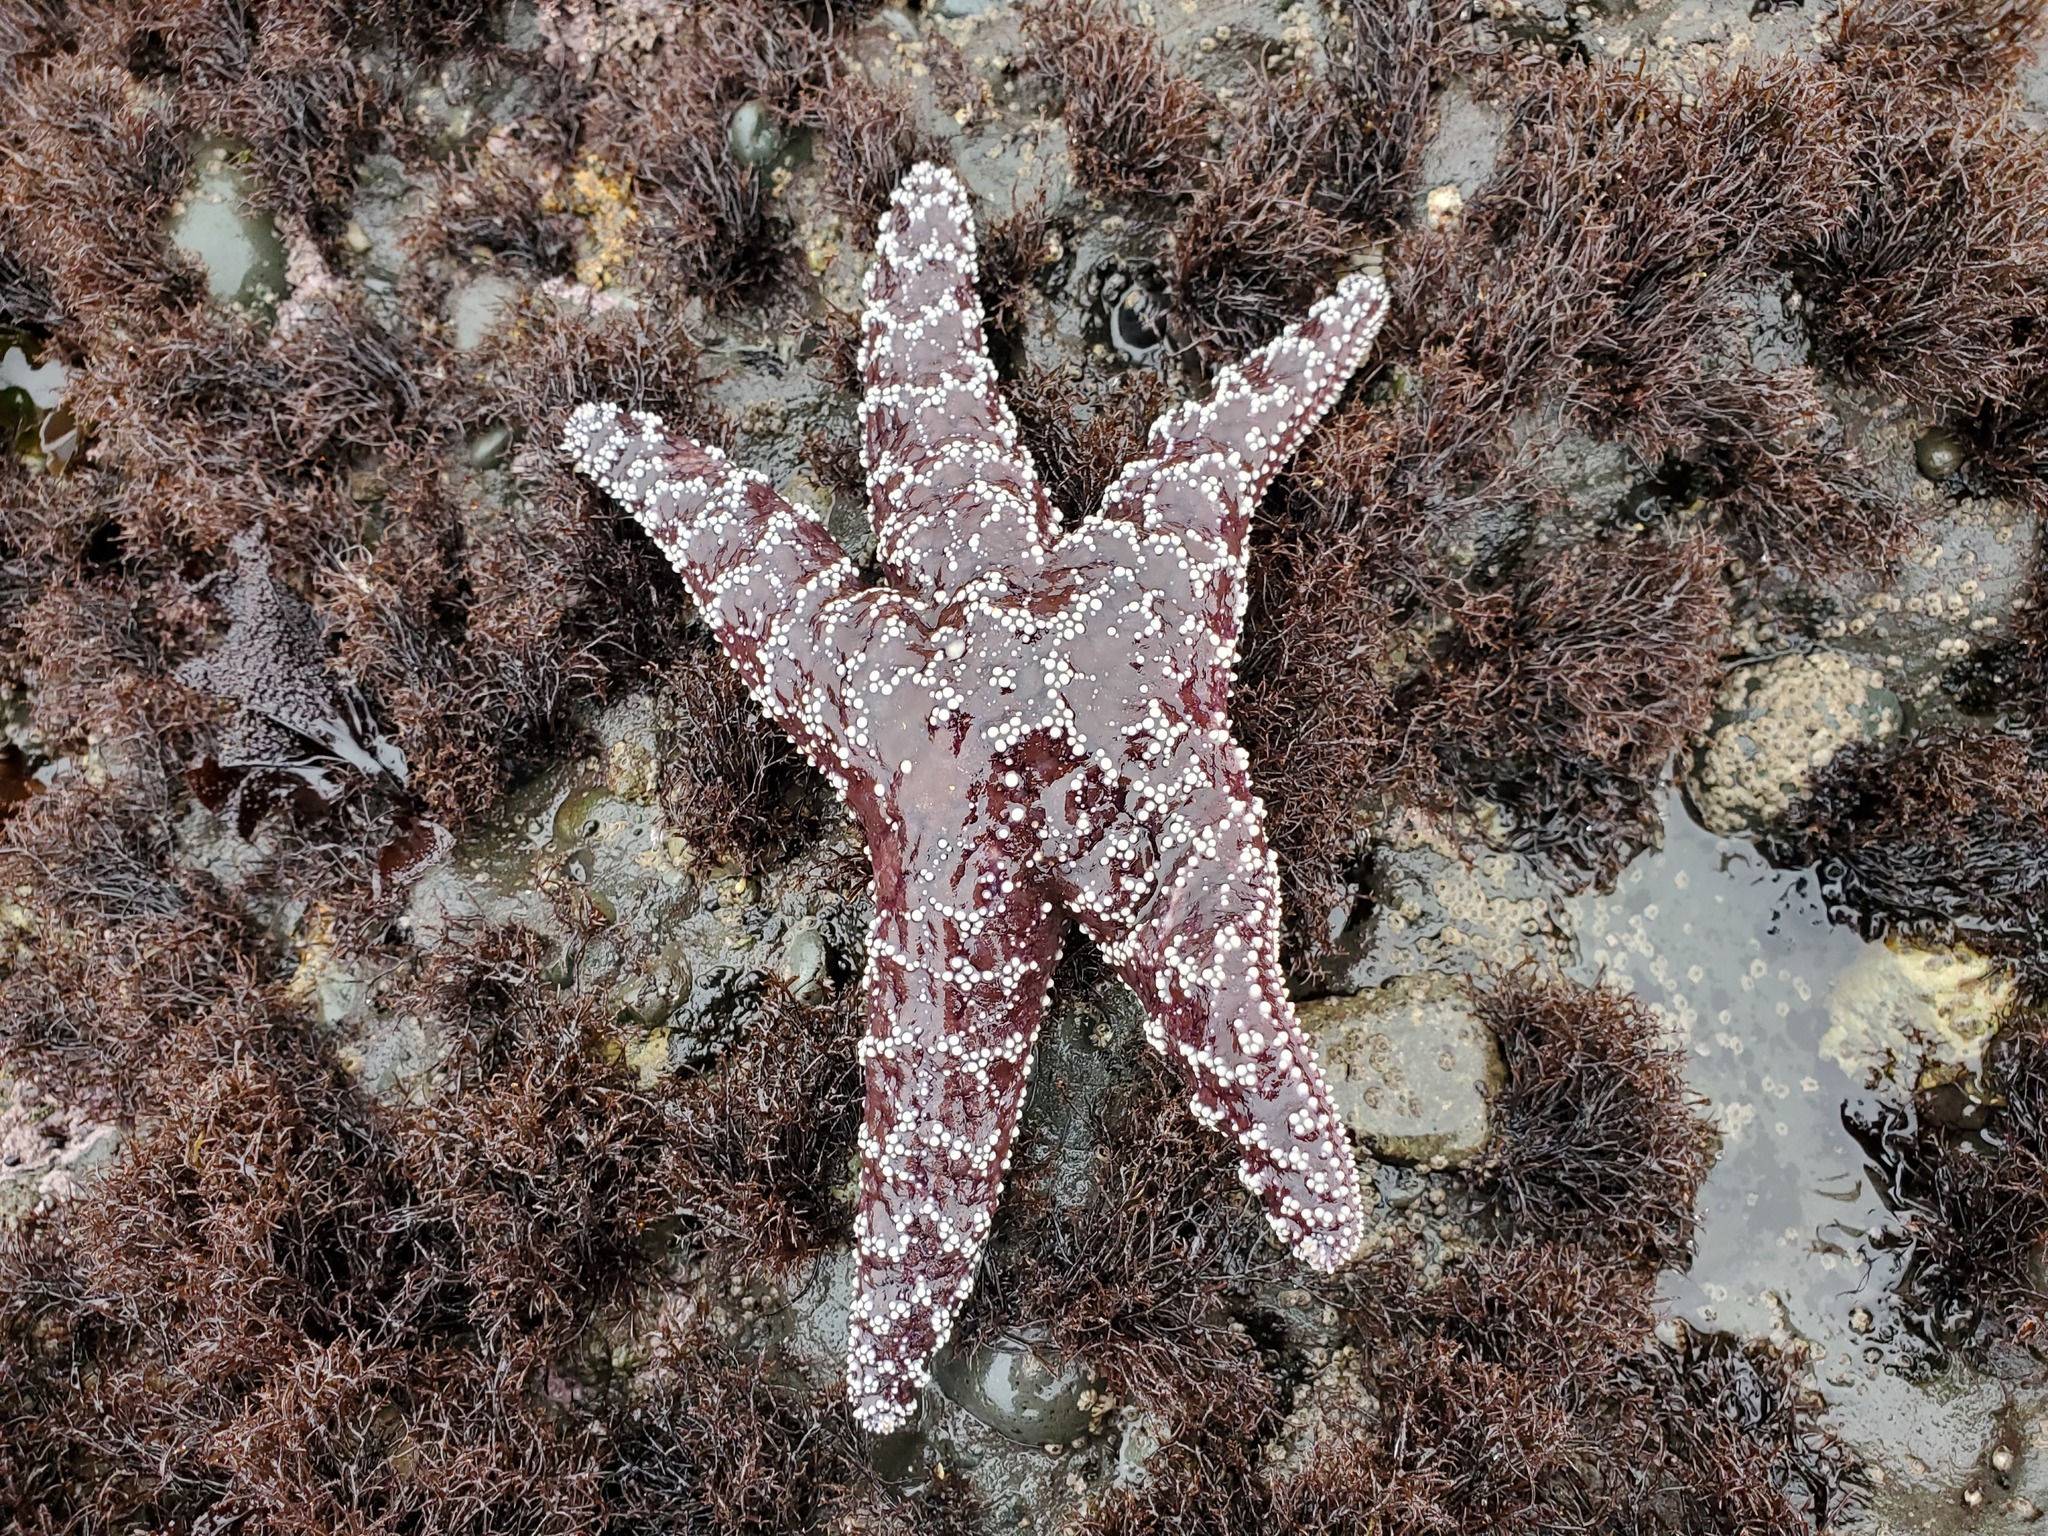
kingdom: Animalia
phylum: Echinodermata
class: Asteroidea
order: Forcipulatida
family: Asteriidae
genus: Pisaster
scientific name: Pisaster ochraceus
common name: Ochre stars
